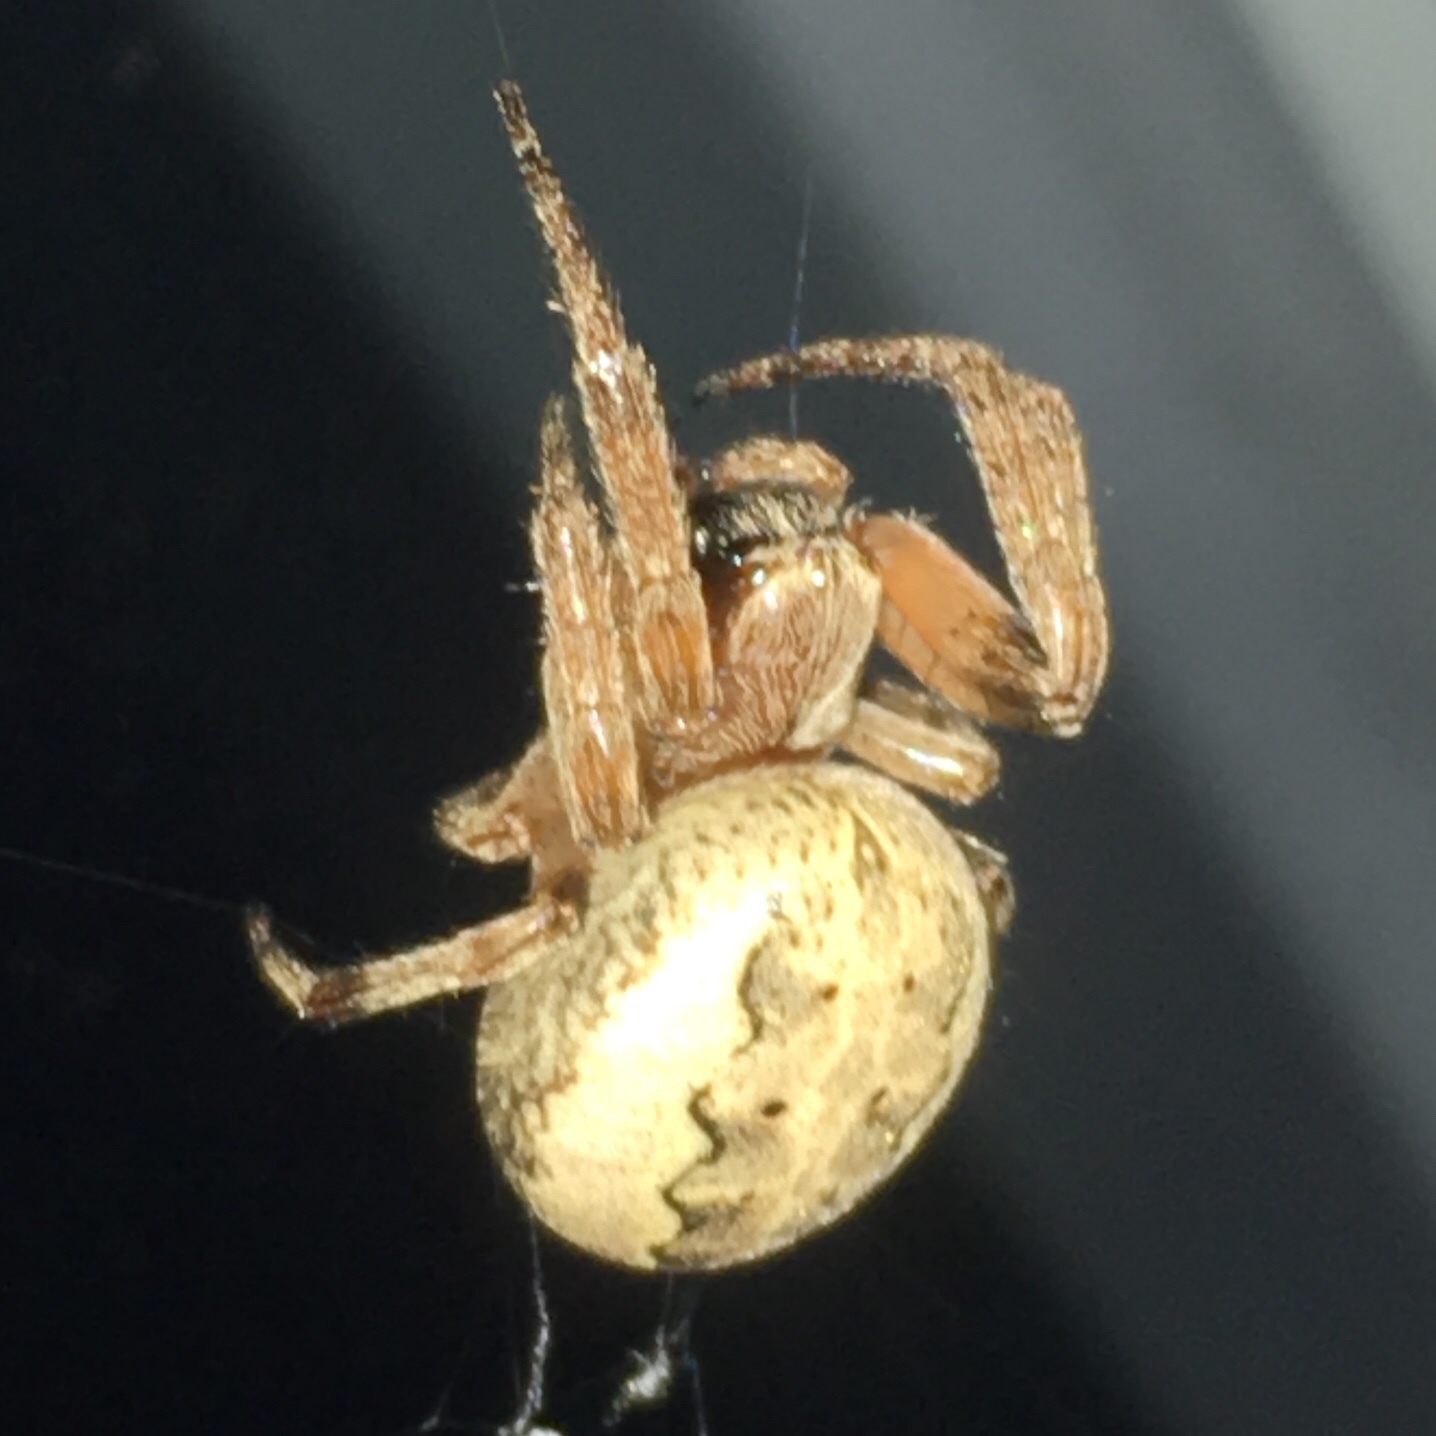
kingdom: Animalia
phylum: Arthropoda
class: Arachnida
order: Araneae
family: Araneidae
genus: Larinioides
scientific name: Larinioides cornutus
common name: Furrow orbweaver
